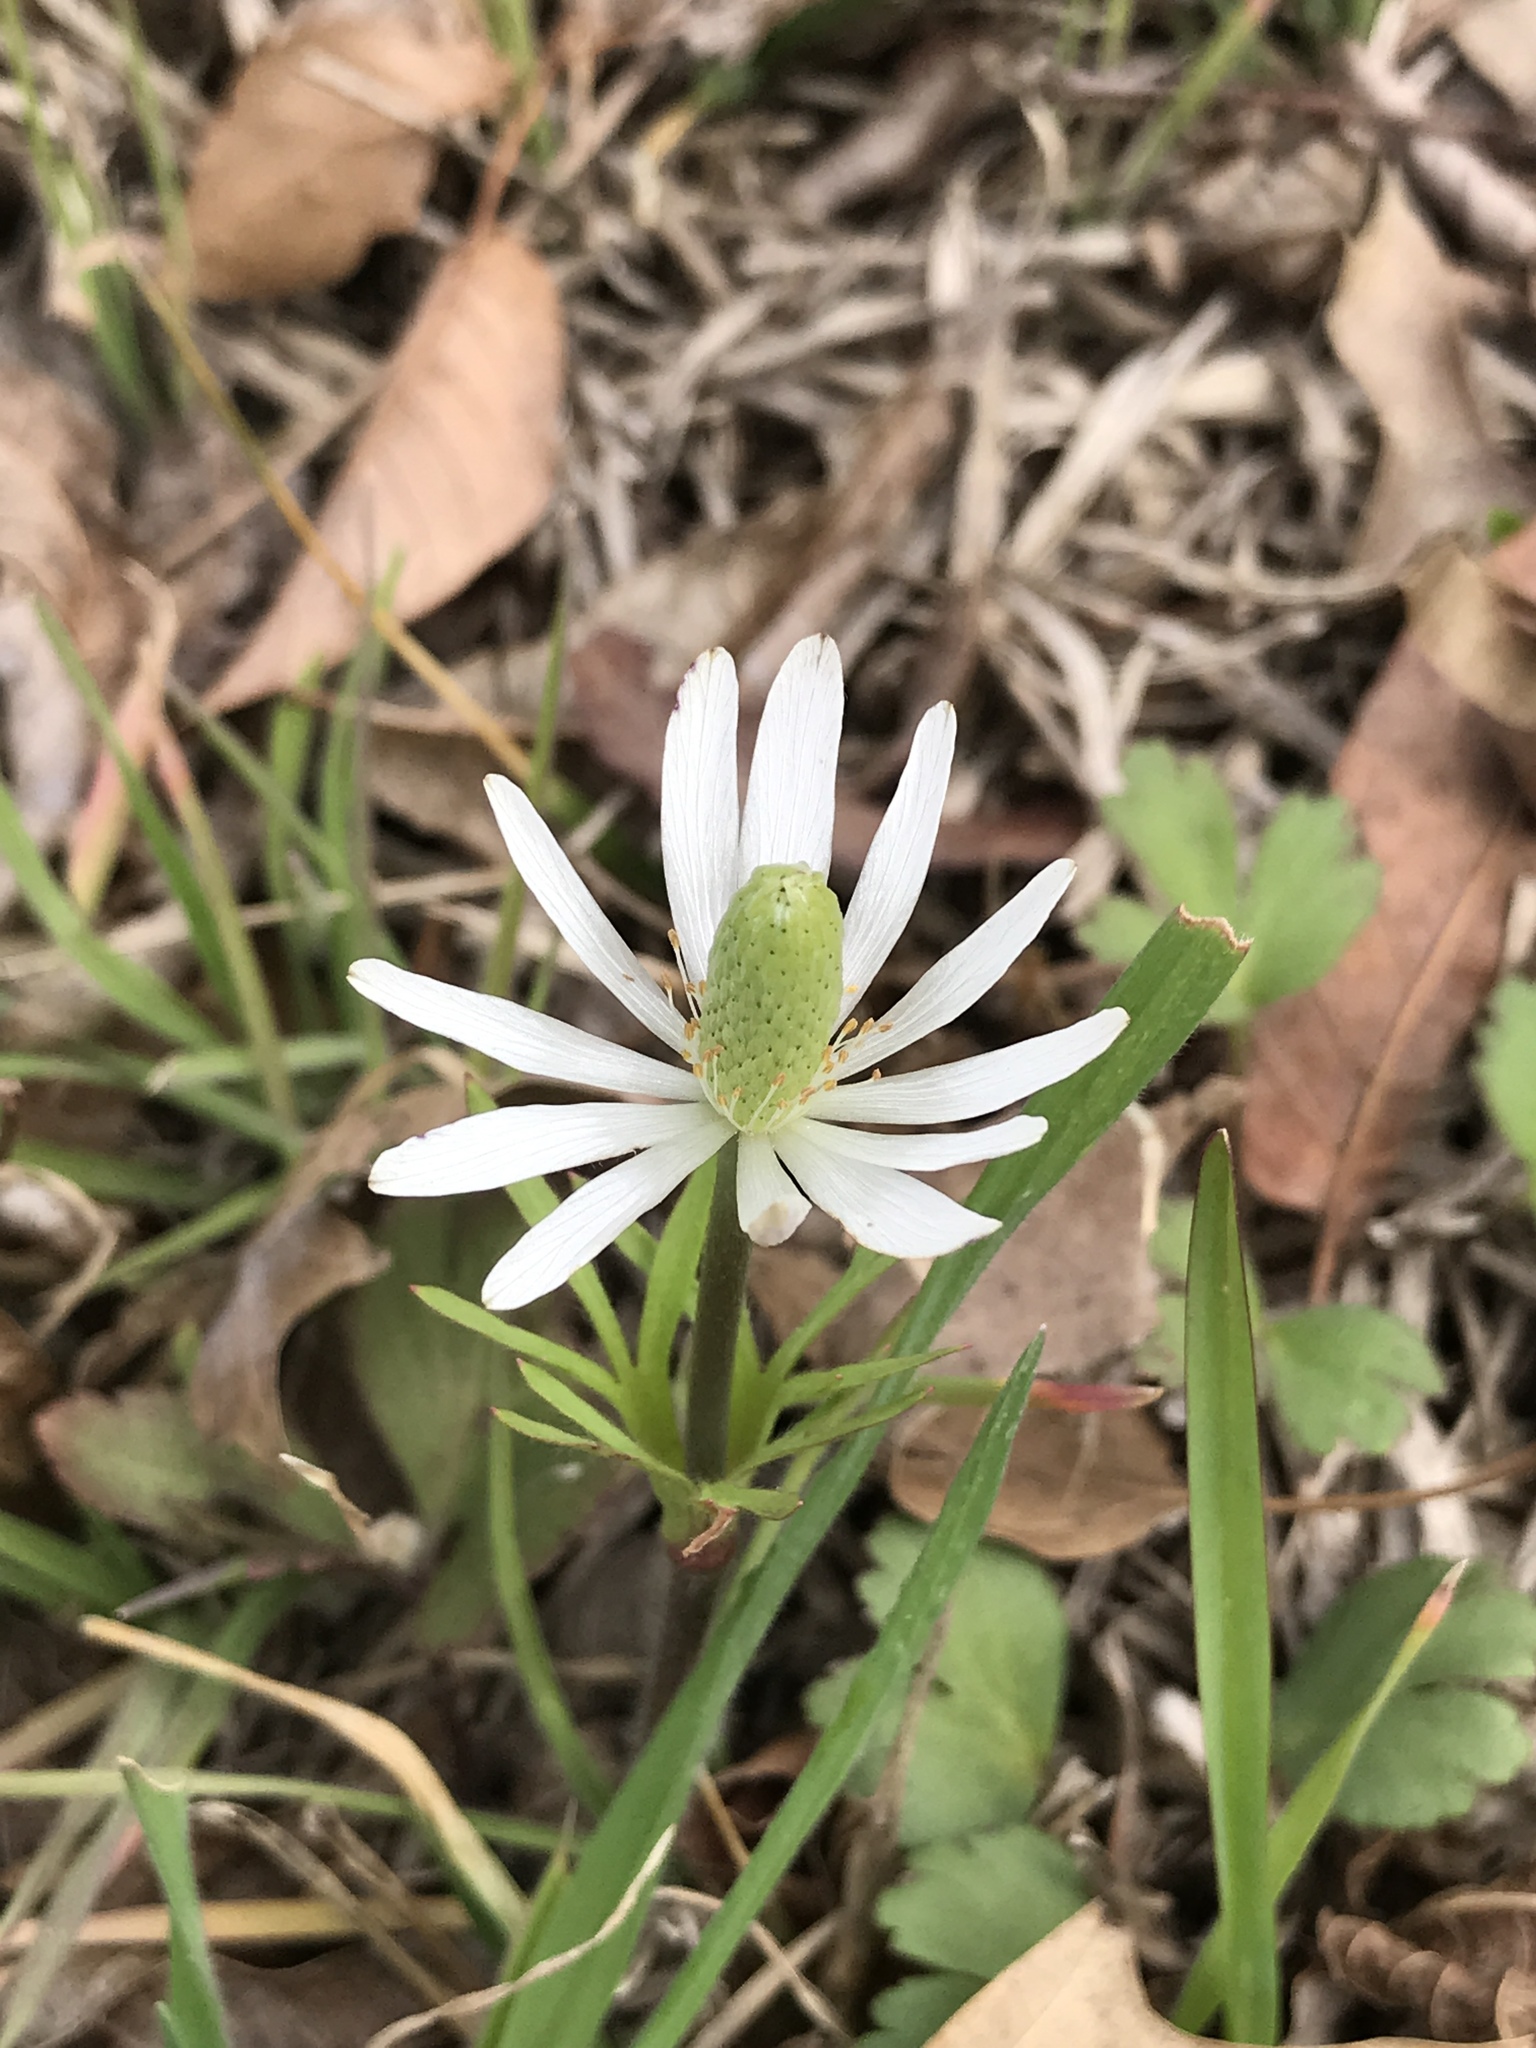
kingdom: Plantae
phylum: Tracheophyta
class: Magnoliopsida
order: Ranunculales
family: Ranunculaceae
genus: Anemone
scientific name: Anemone berlandieri
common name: Ten-petal anemone
